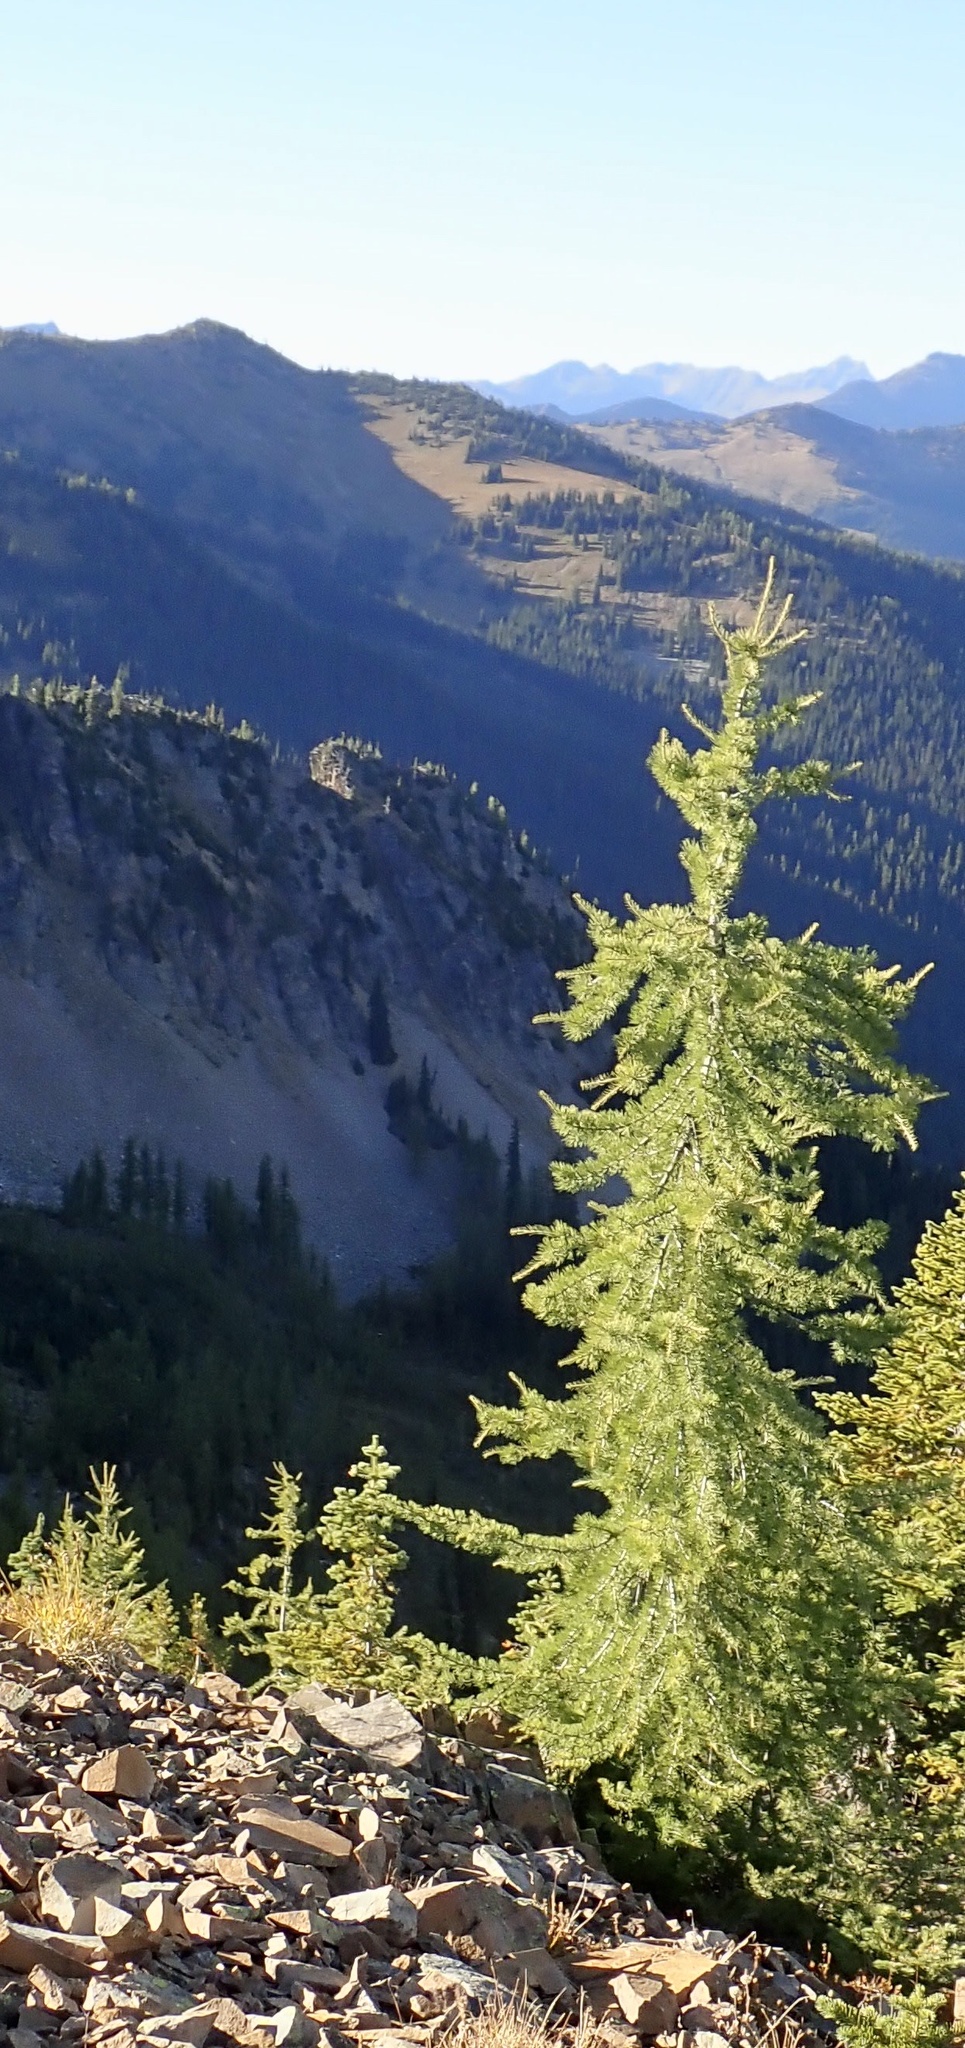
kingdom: Plantae
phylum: Tracheophyta
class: Pinopsida
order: Pinales
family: Pinaceae
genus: Larix
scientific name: Larix lyallii
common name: Alpine larch
